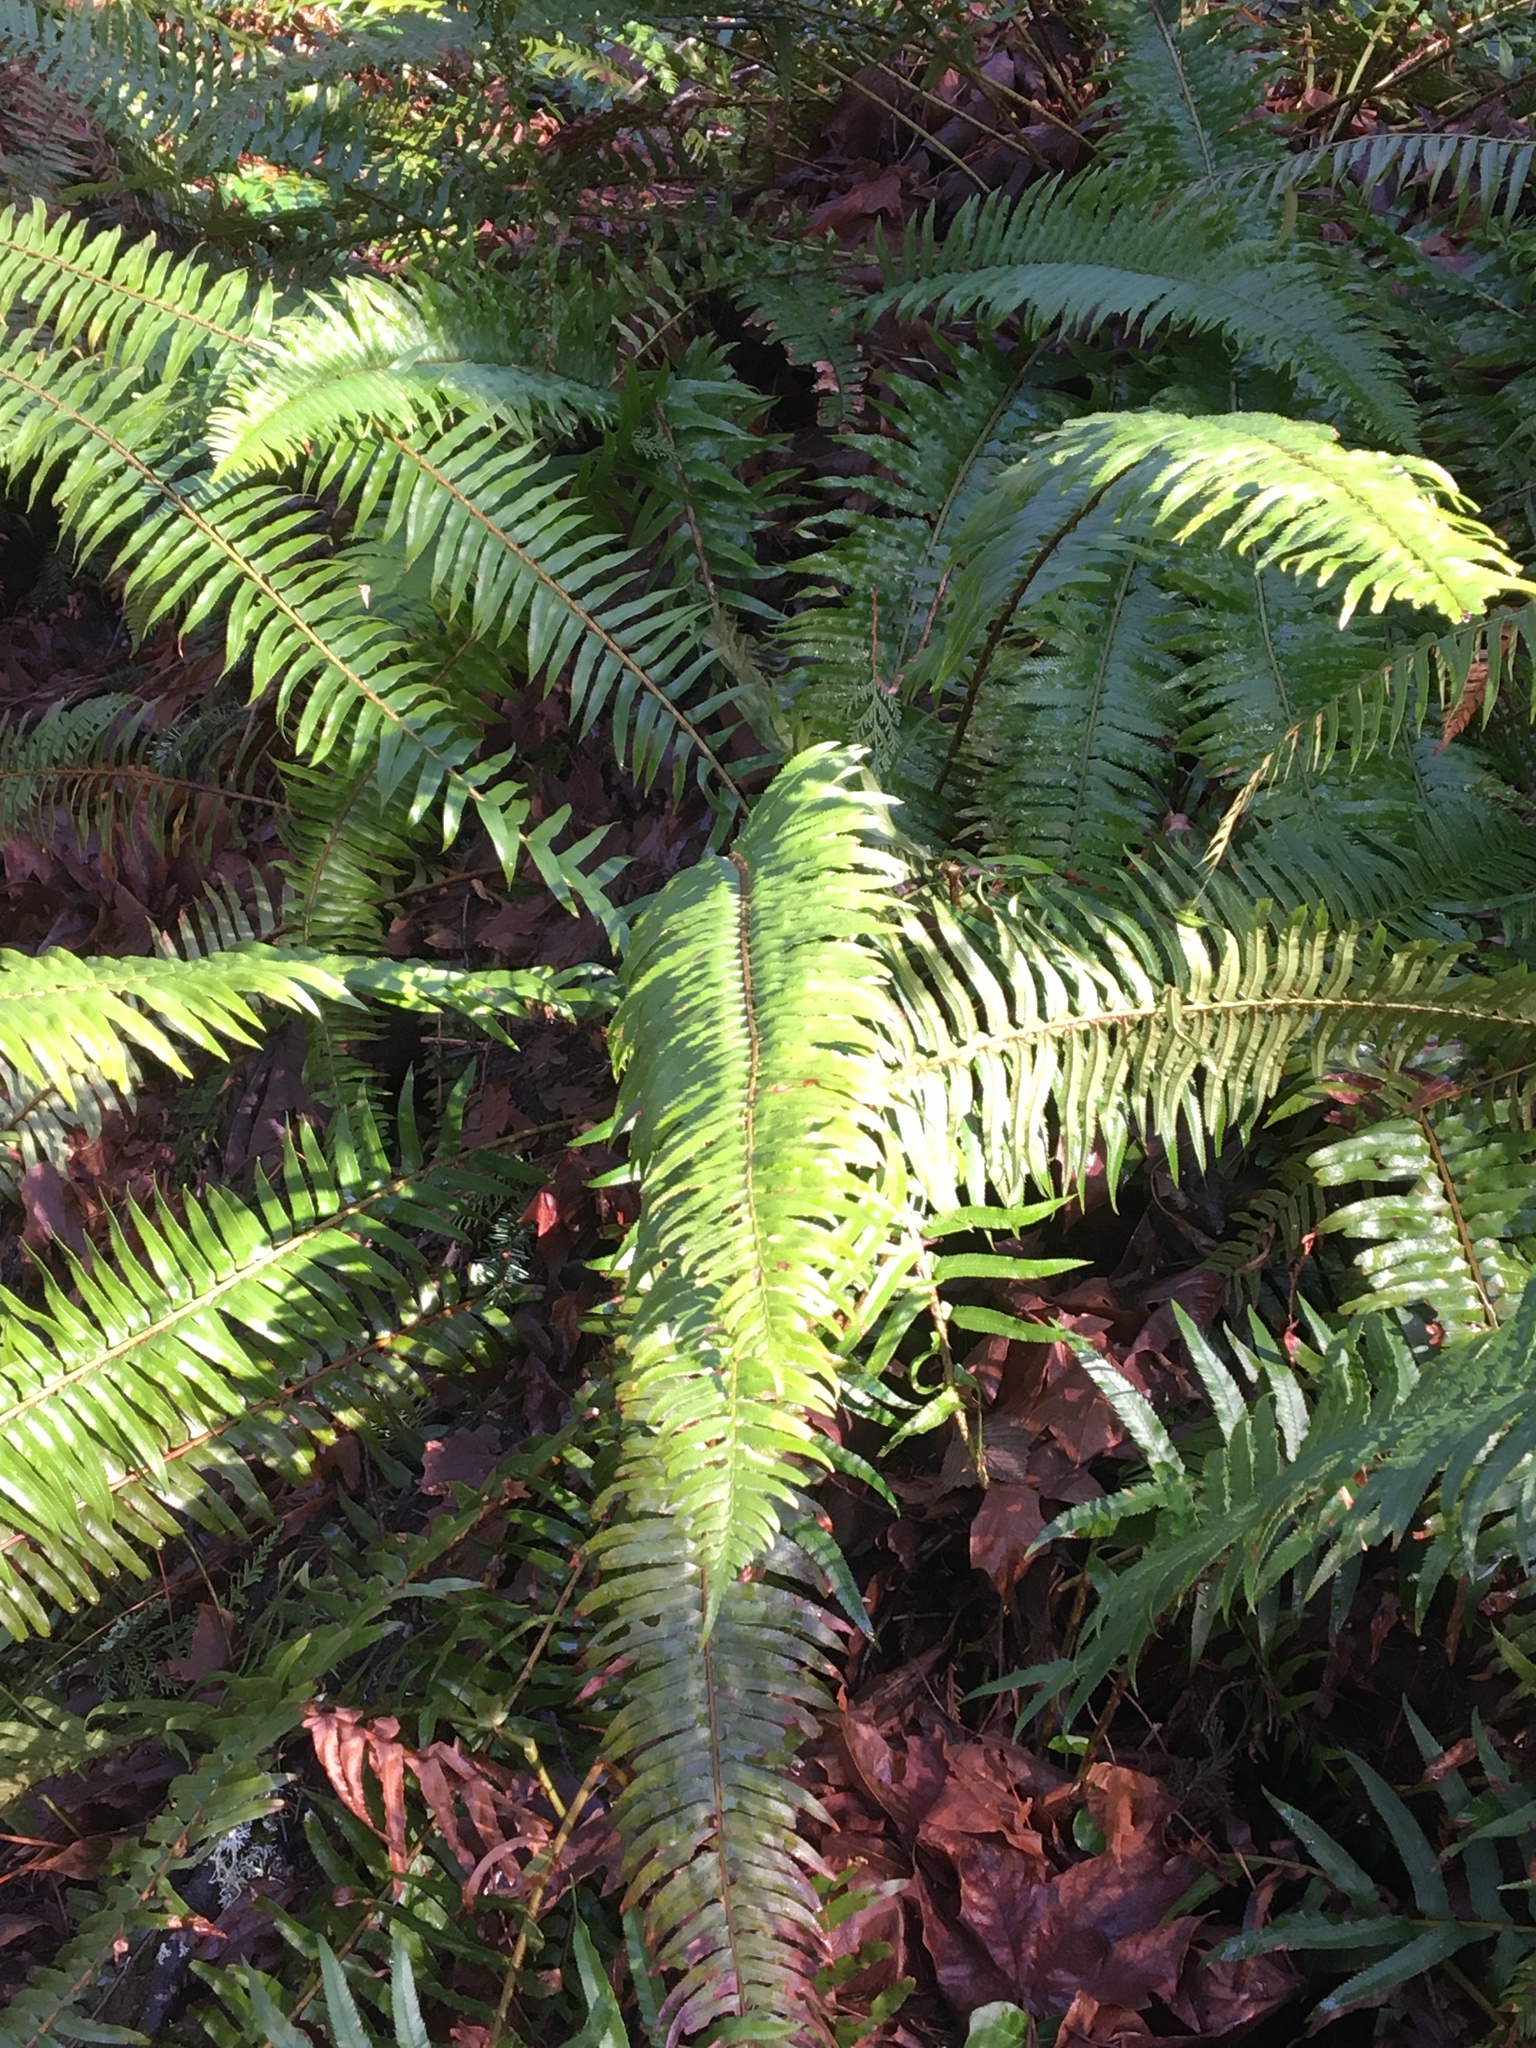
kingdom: Plantae
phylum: Tracheophyta
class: Polypodiopsida
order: Polypodiales
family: Dryopteridaceae
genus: Polystichum
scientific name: Polystichum munitum
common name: Western sword-fern
